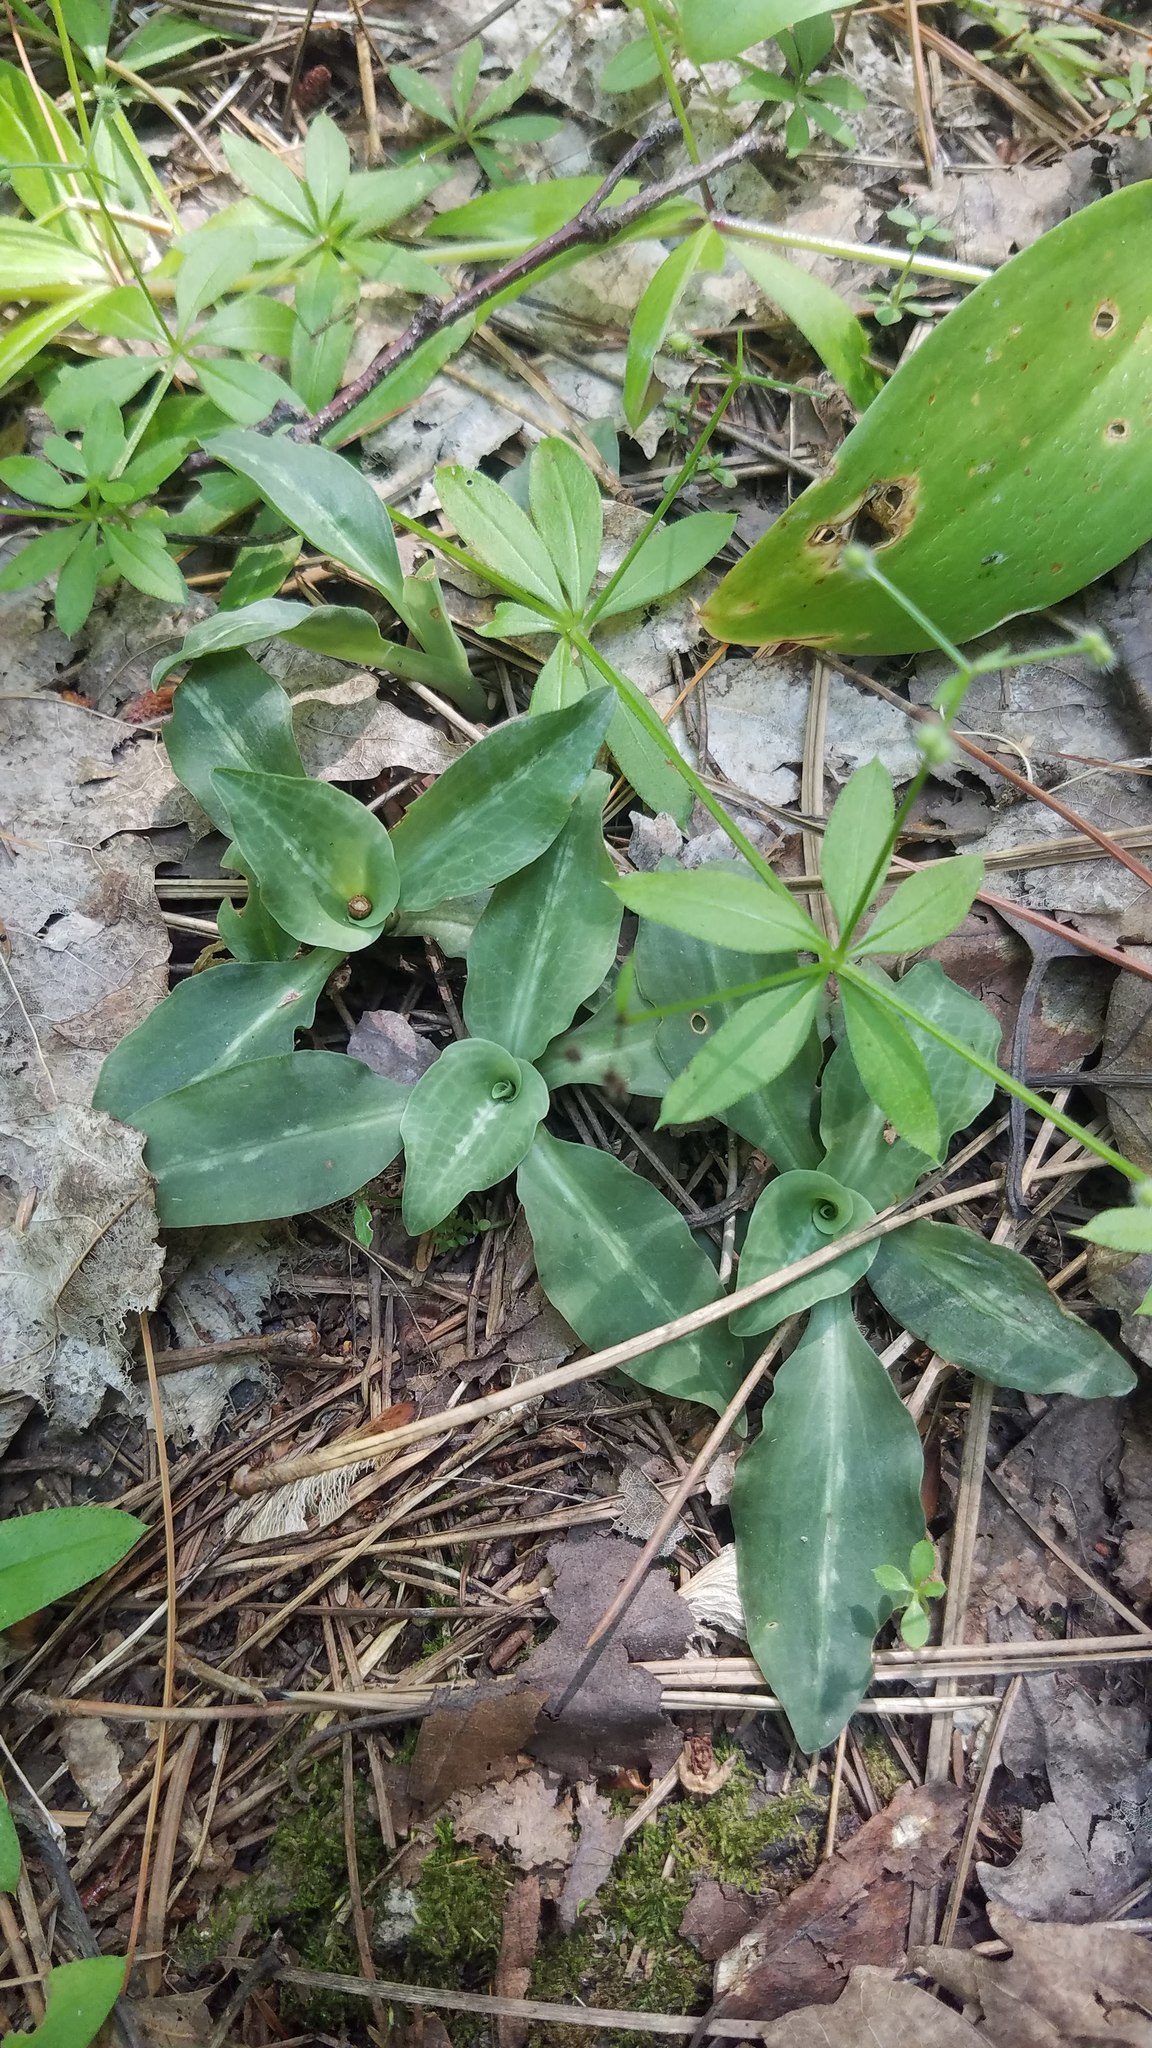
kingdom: Plantae
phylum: Tracheophyta
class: Liliopsida
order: Asparagales
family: Orchidaceae
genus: Goodyera
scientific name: Goodyera oblongifolia
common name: Giant rattlesnake-plantain
